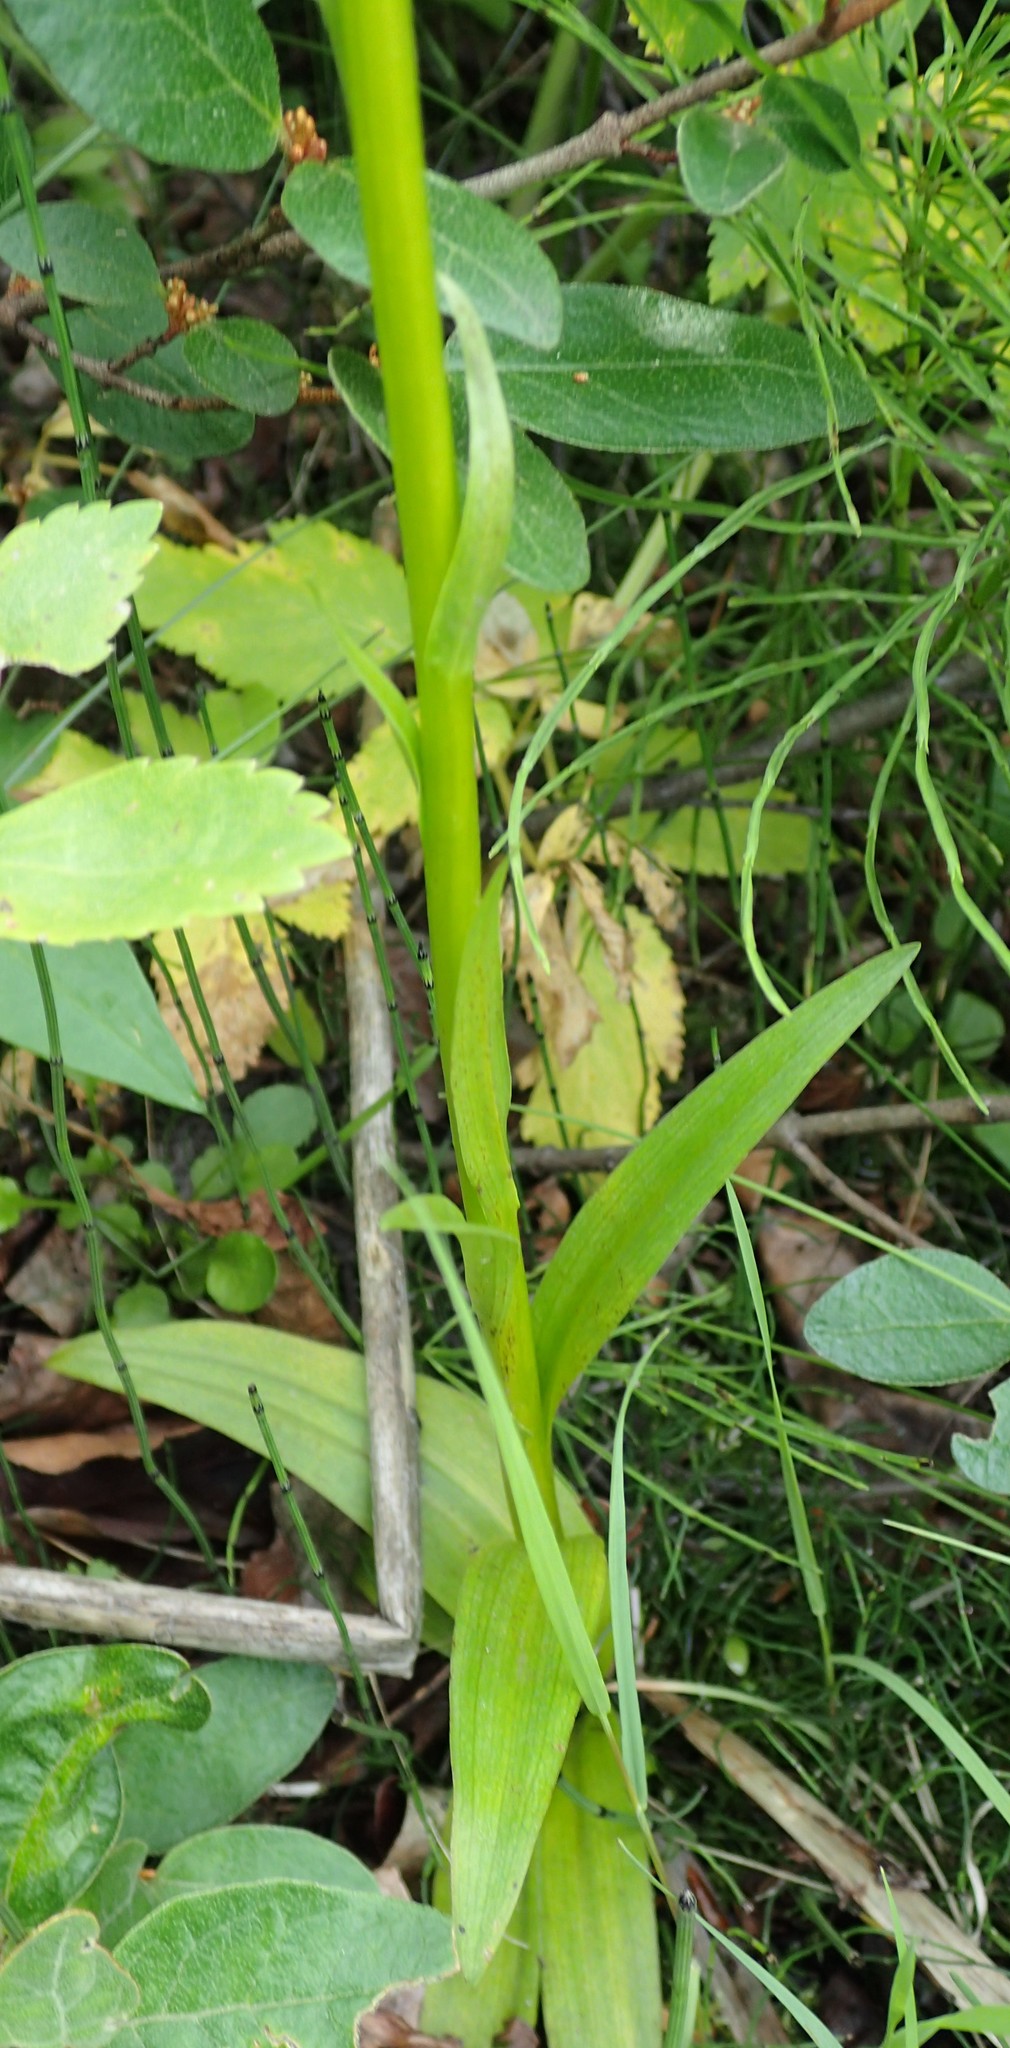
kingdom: Plantae
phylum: Tracheophyta
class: Liliopsida
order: Asparagales
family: Orchidaceae
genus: Platanthera
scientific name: Platanthera huronensis
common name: Fragrant green orchid
